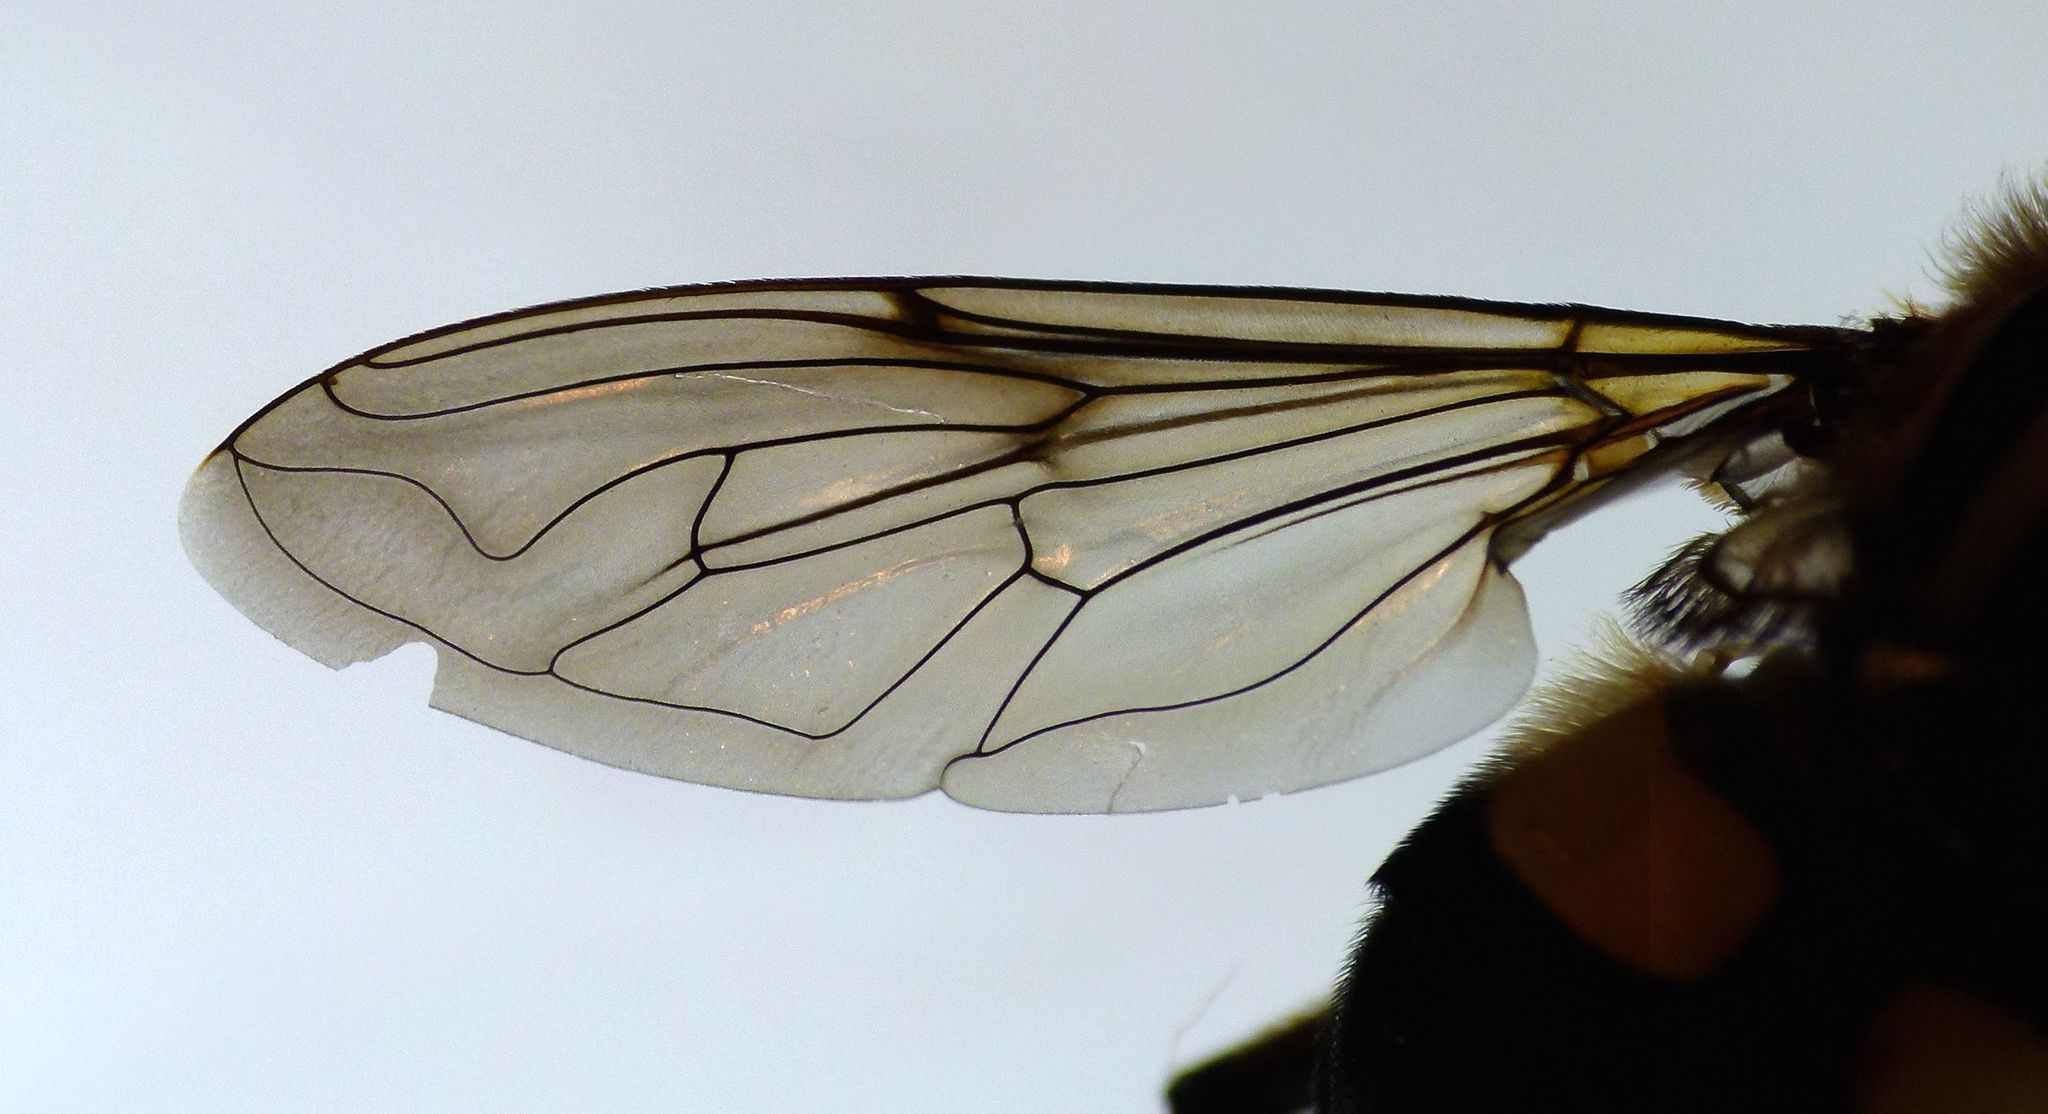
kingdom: Animalia
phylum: Arthropoda
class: Insecta
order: Diptera
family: Syrphidae
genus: Helophilus
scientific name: Helophilus seelandicus
